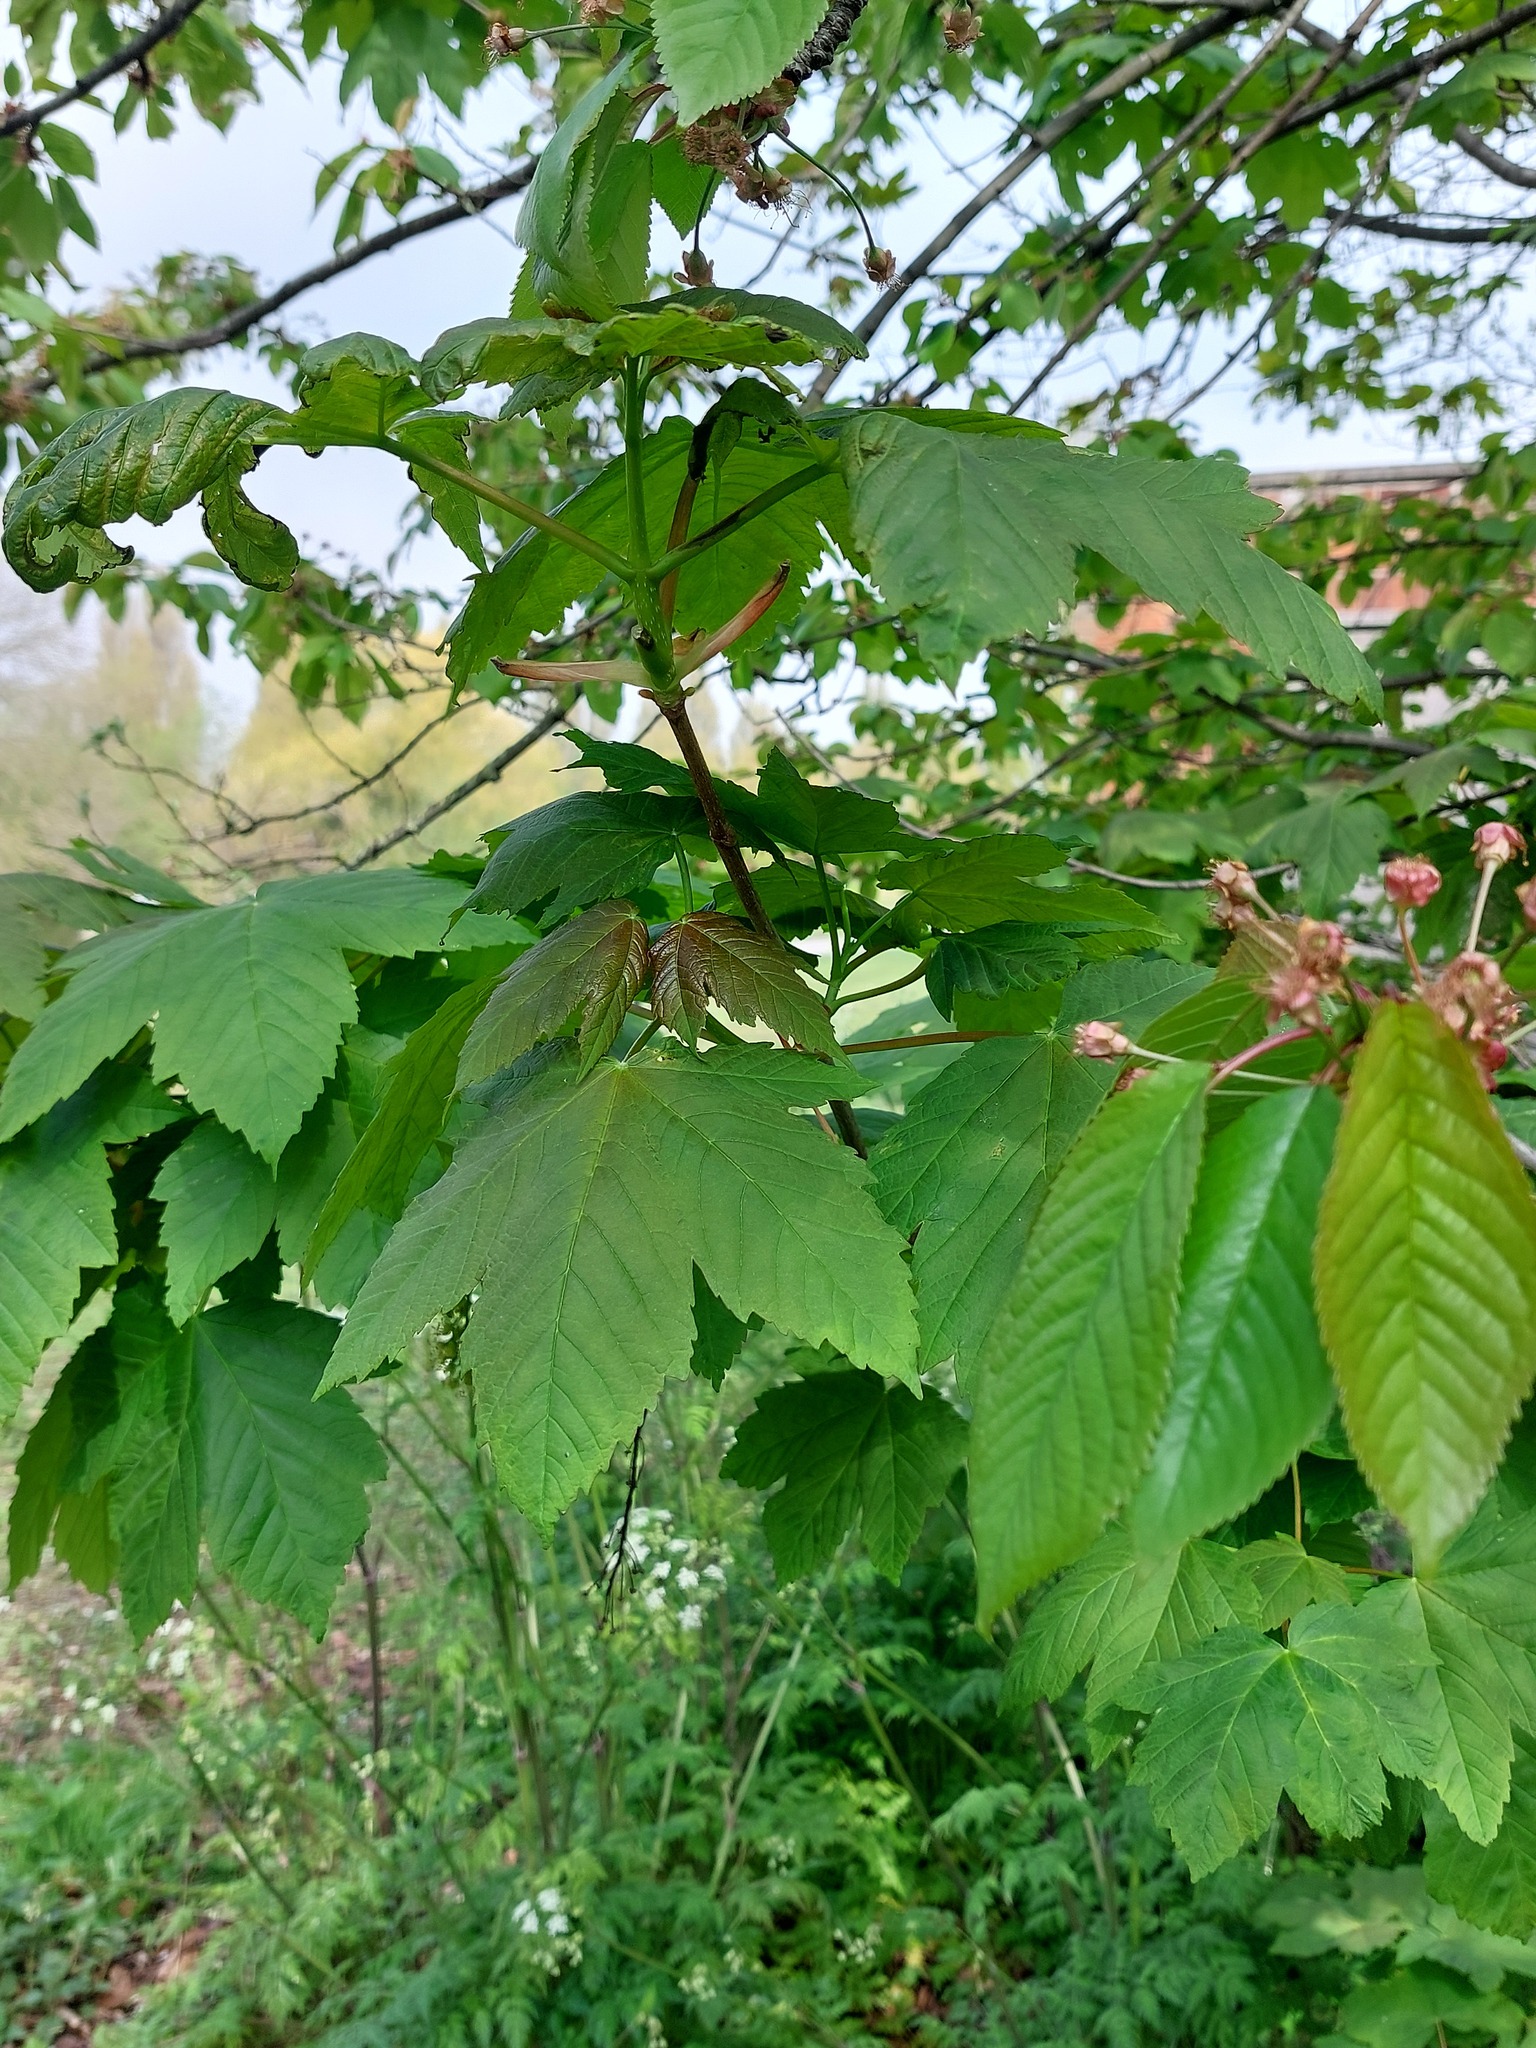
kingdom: Plantae
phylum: Tracheophyta
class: Magnoliopsida
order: Sapindales
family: Sapindaceae
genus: Acer
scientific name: Acer pseudoplatanus
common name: Sycamore
